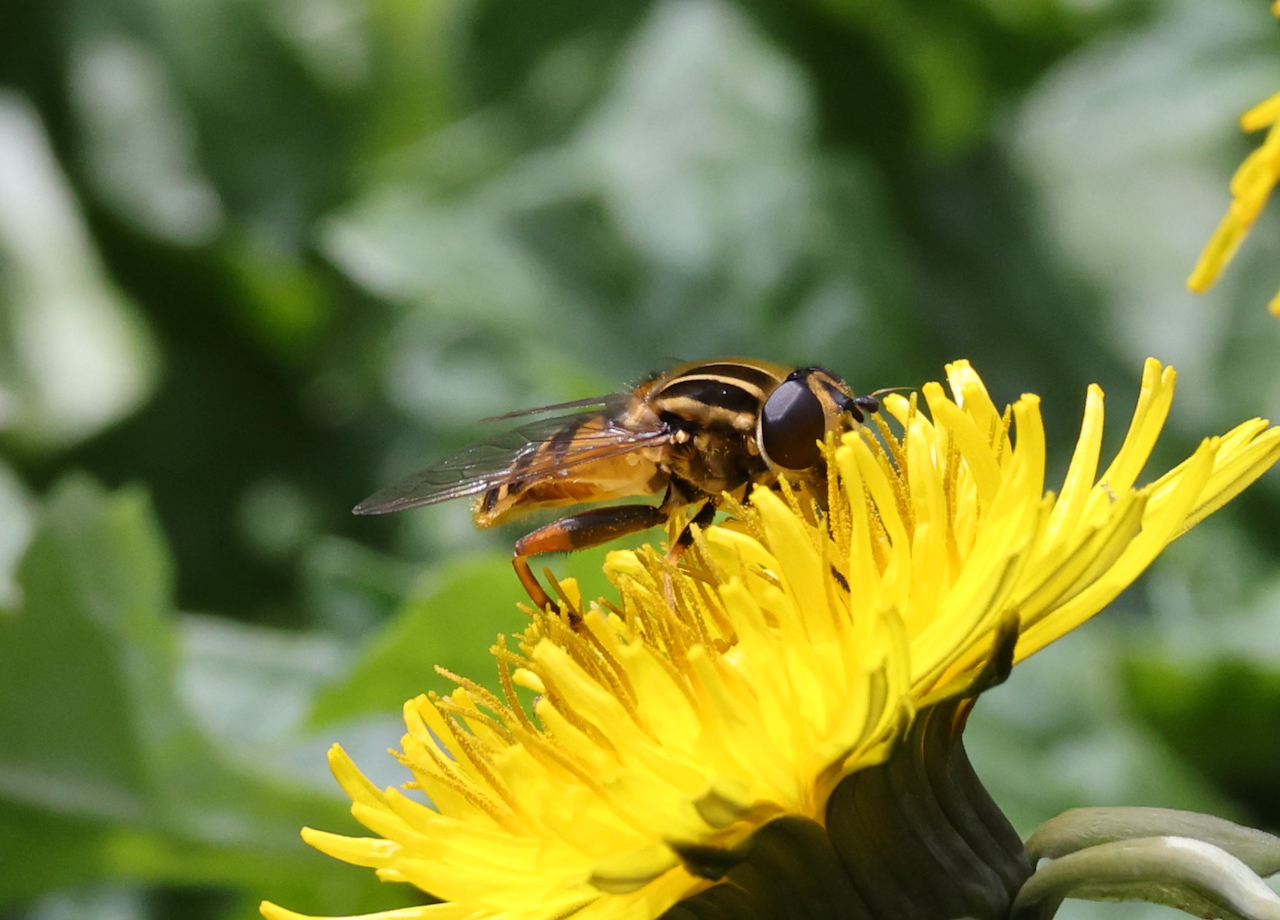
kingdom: Animalia
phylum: Arthropoda
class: Insecta
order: Diptera
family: Syrphidae
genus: Helophilus
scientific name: Helophilus pendulus
